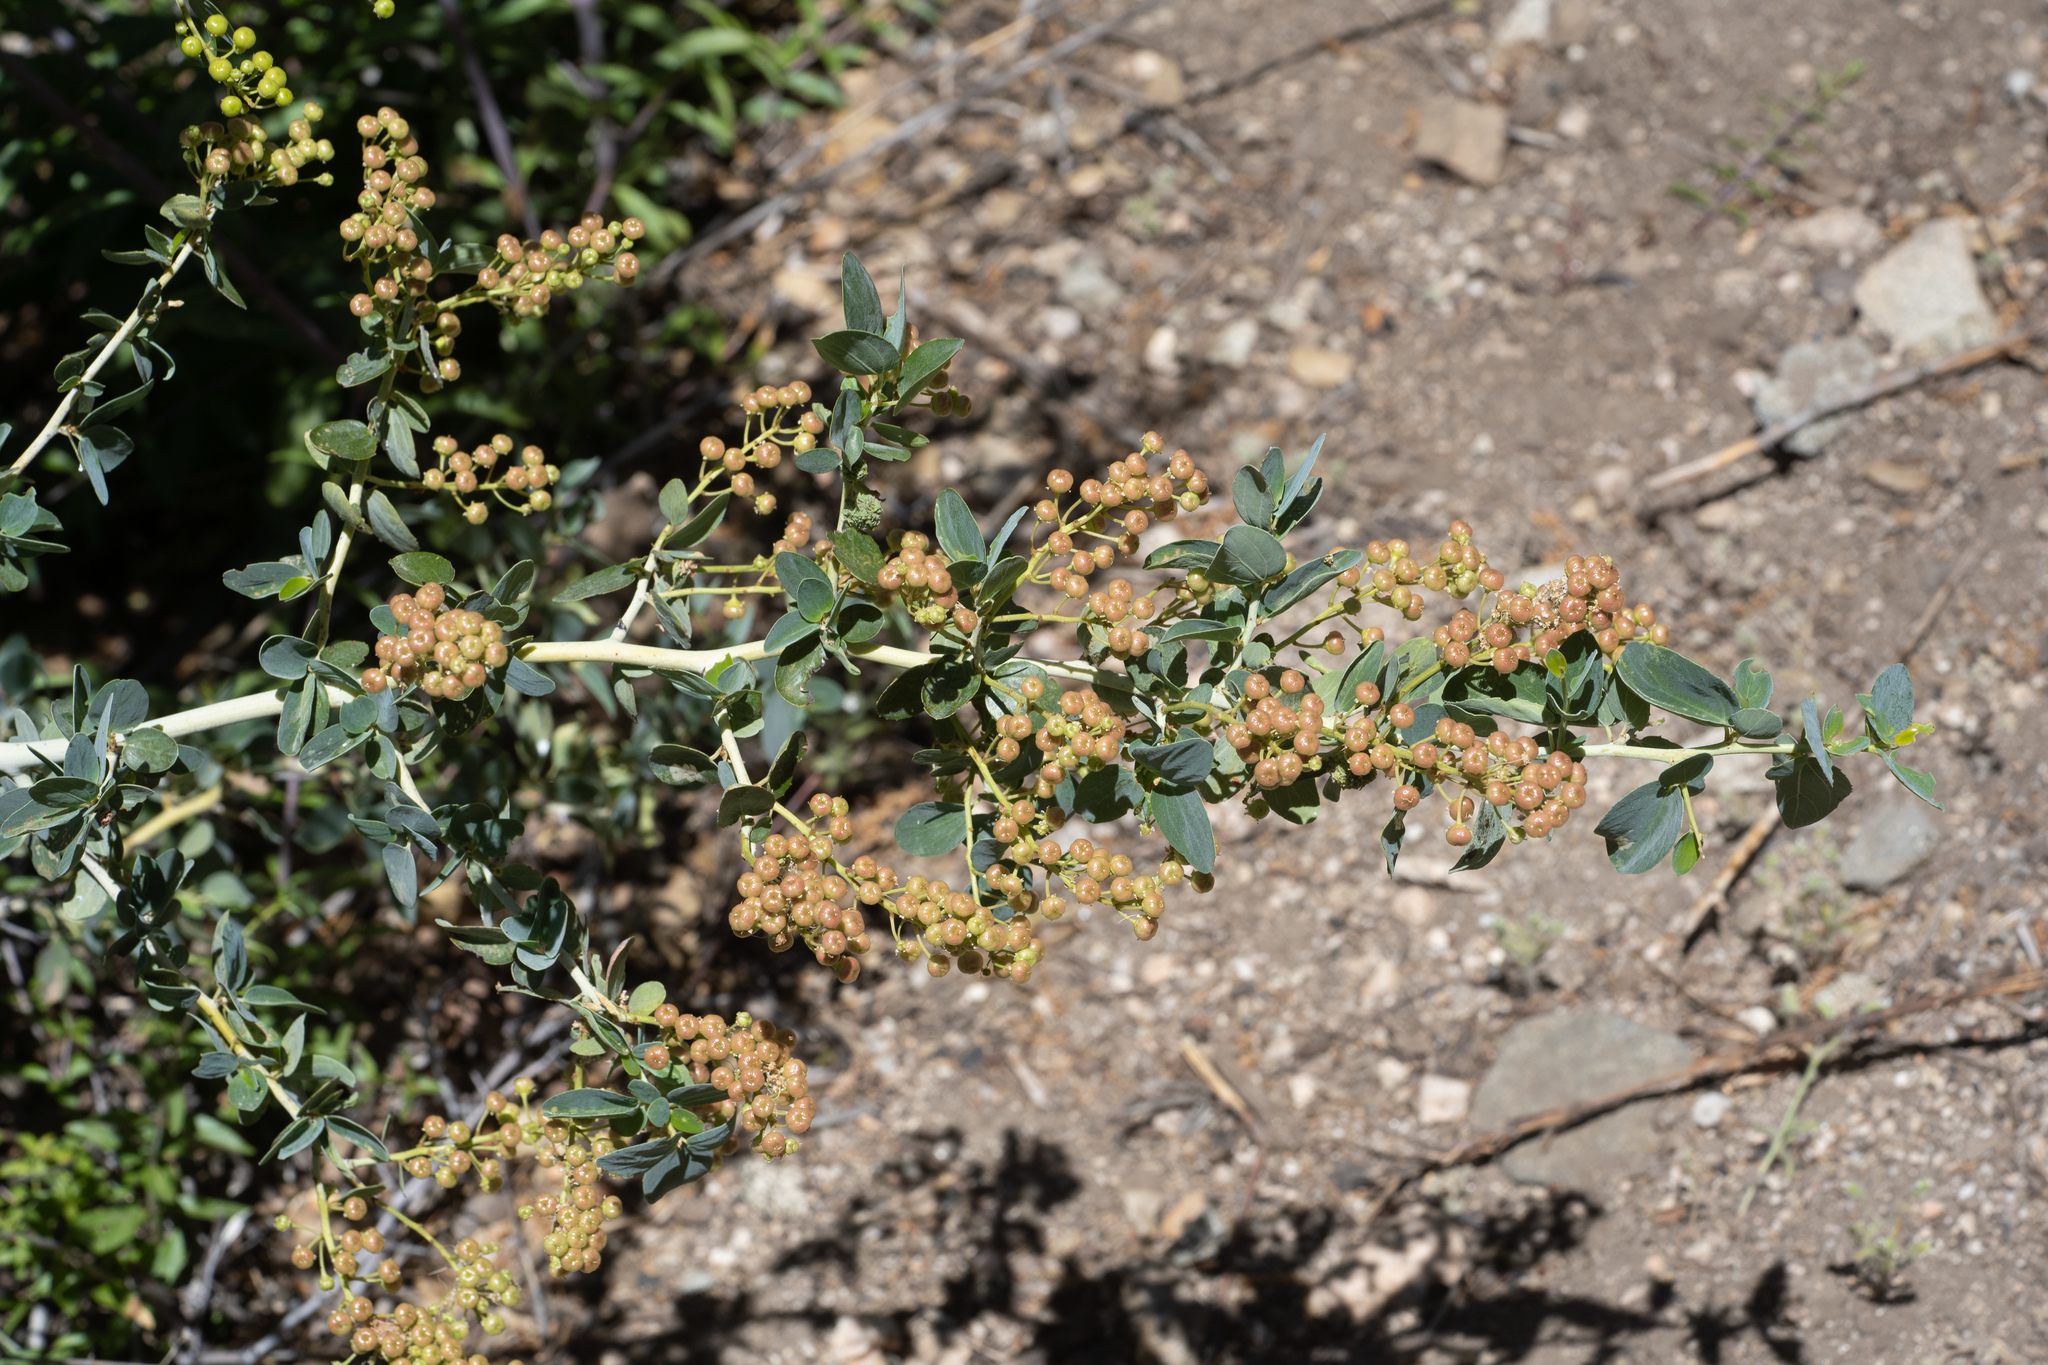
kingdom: Plantae
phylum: Tracheophyta
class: Magnoliopsida
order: Rosales
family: Rhamnaceae
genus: Ceanothus
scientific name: Ceanothus leucodermis
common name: Chaparral whitethorn
